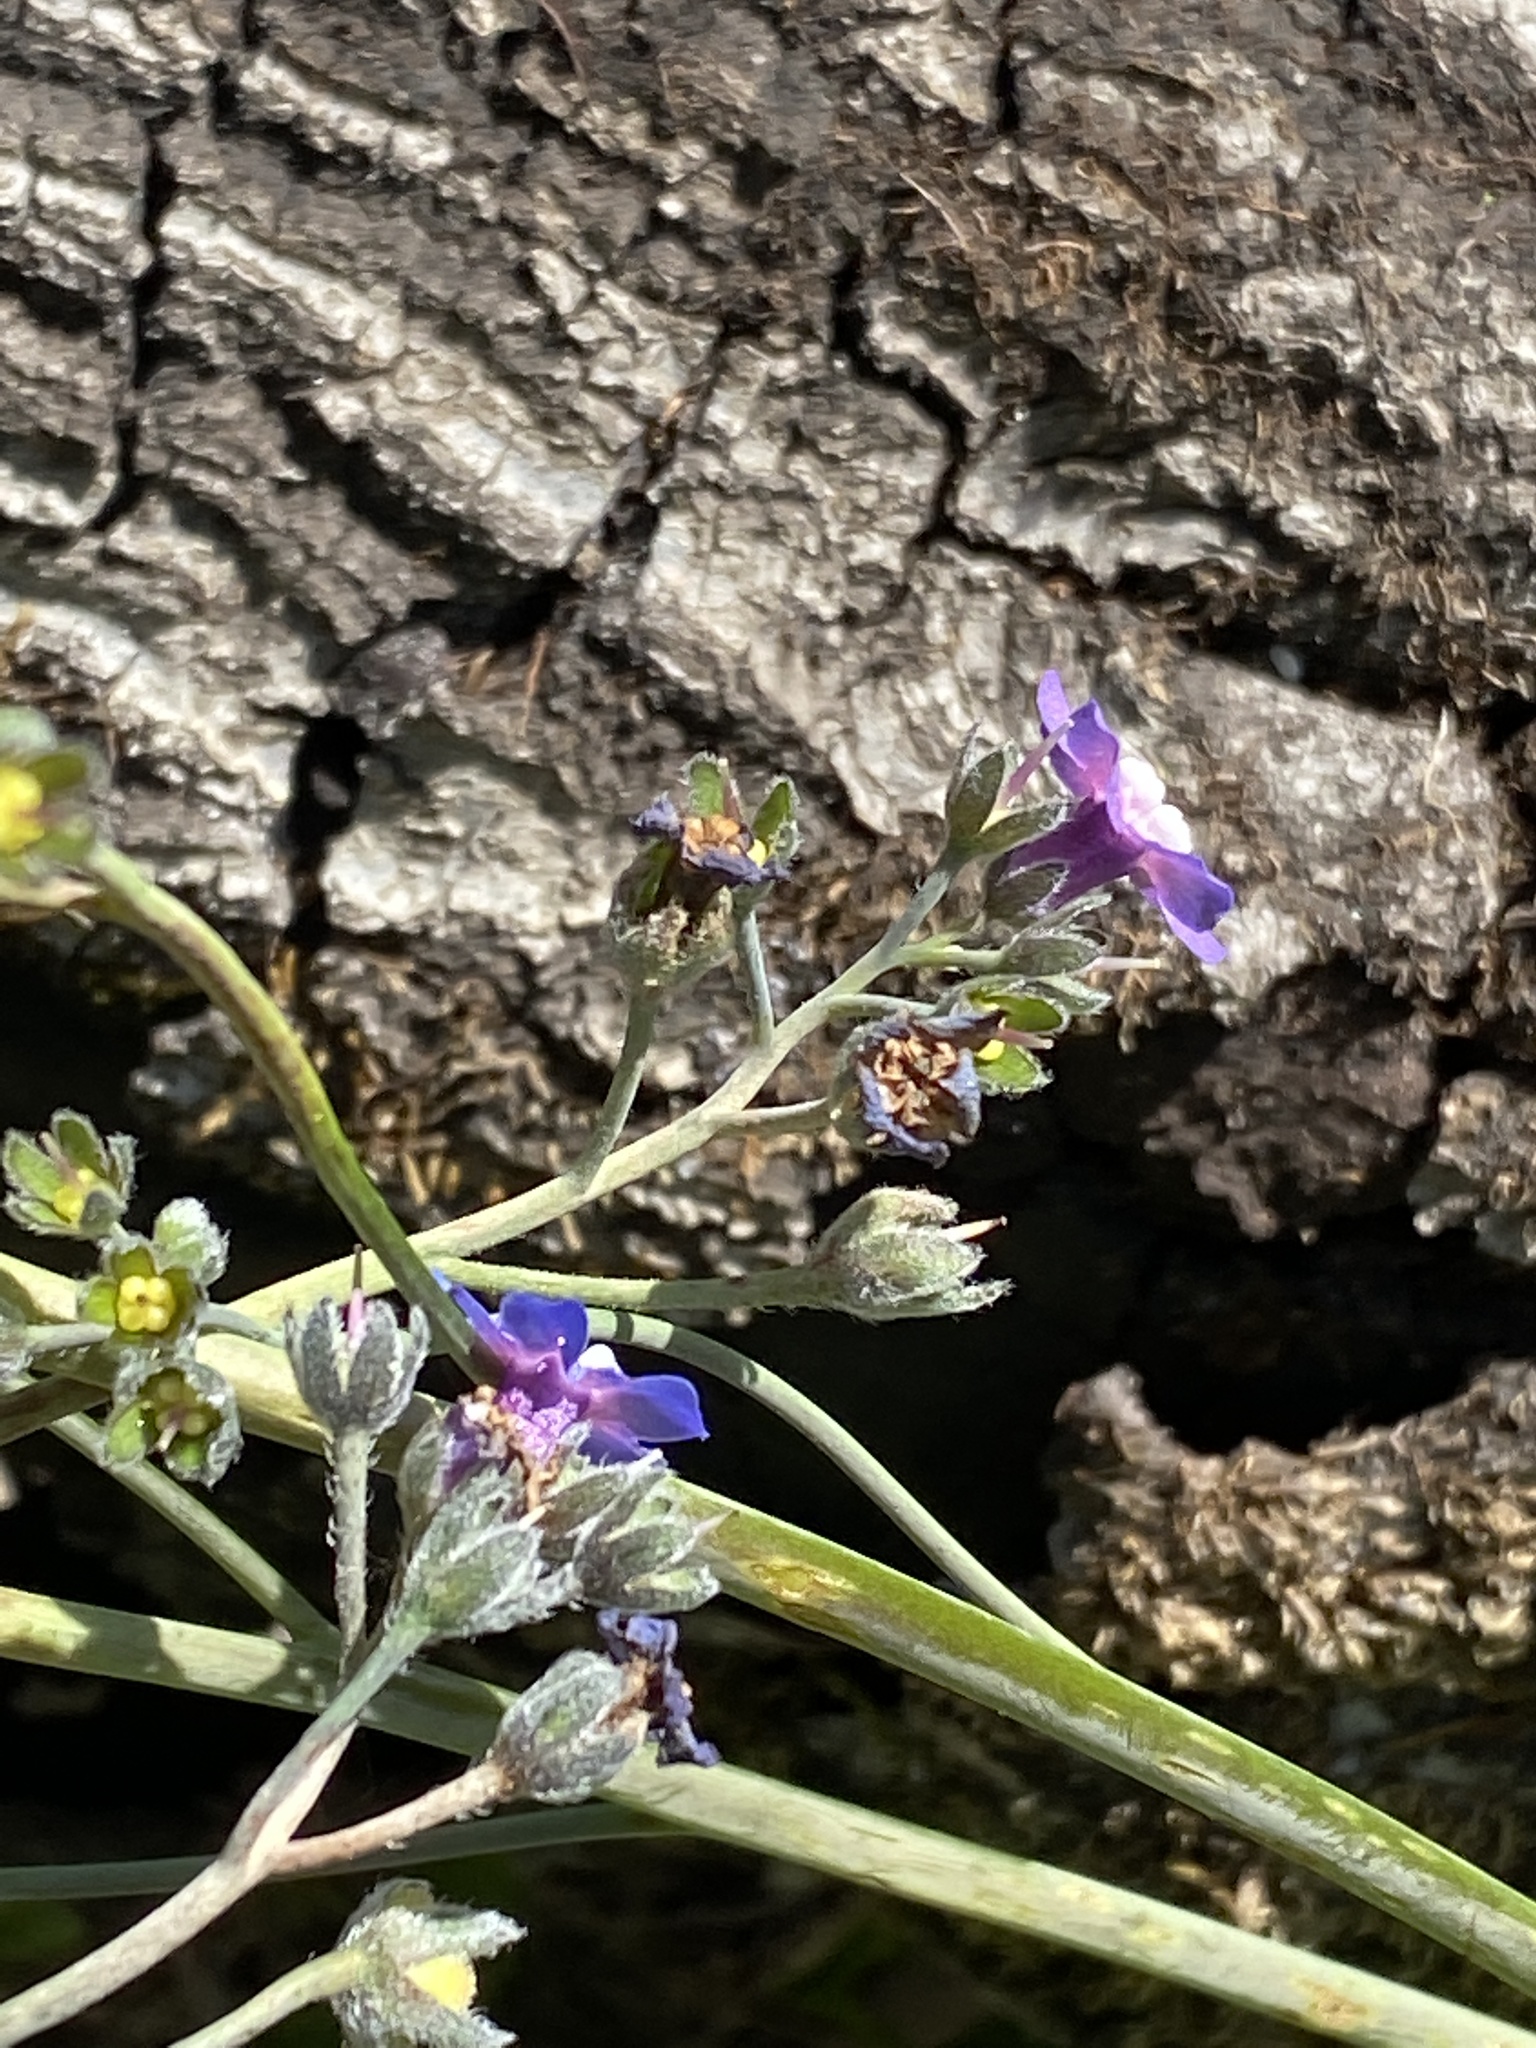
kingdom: Plantae
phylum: Tracheophyta
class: Magnoliopsida
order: Boraginales
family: Boraginaceae
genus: Adelinia
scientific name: Adelinia grande
